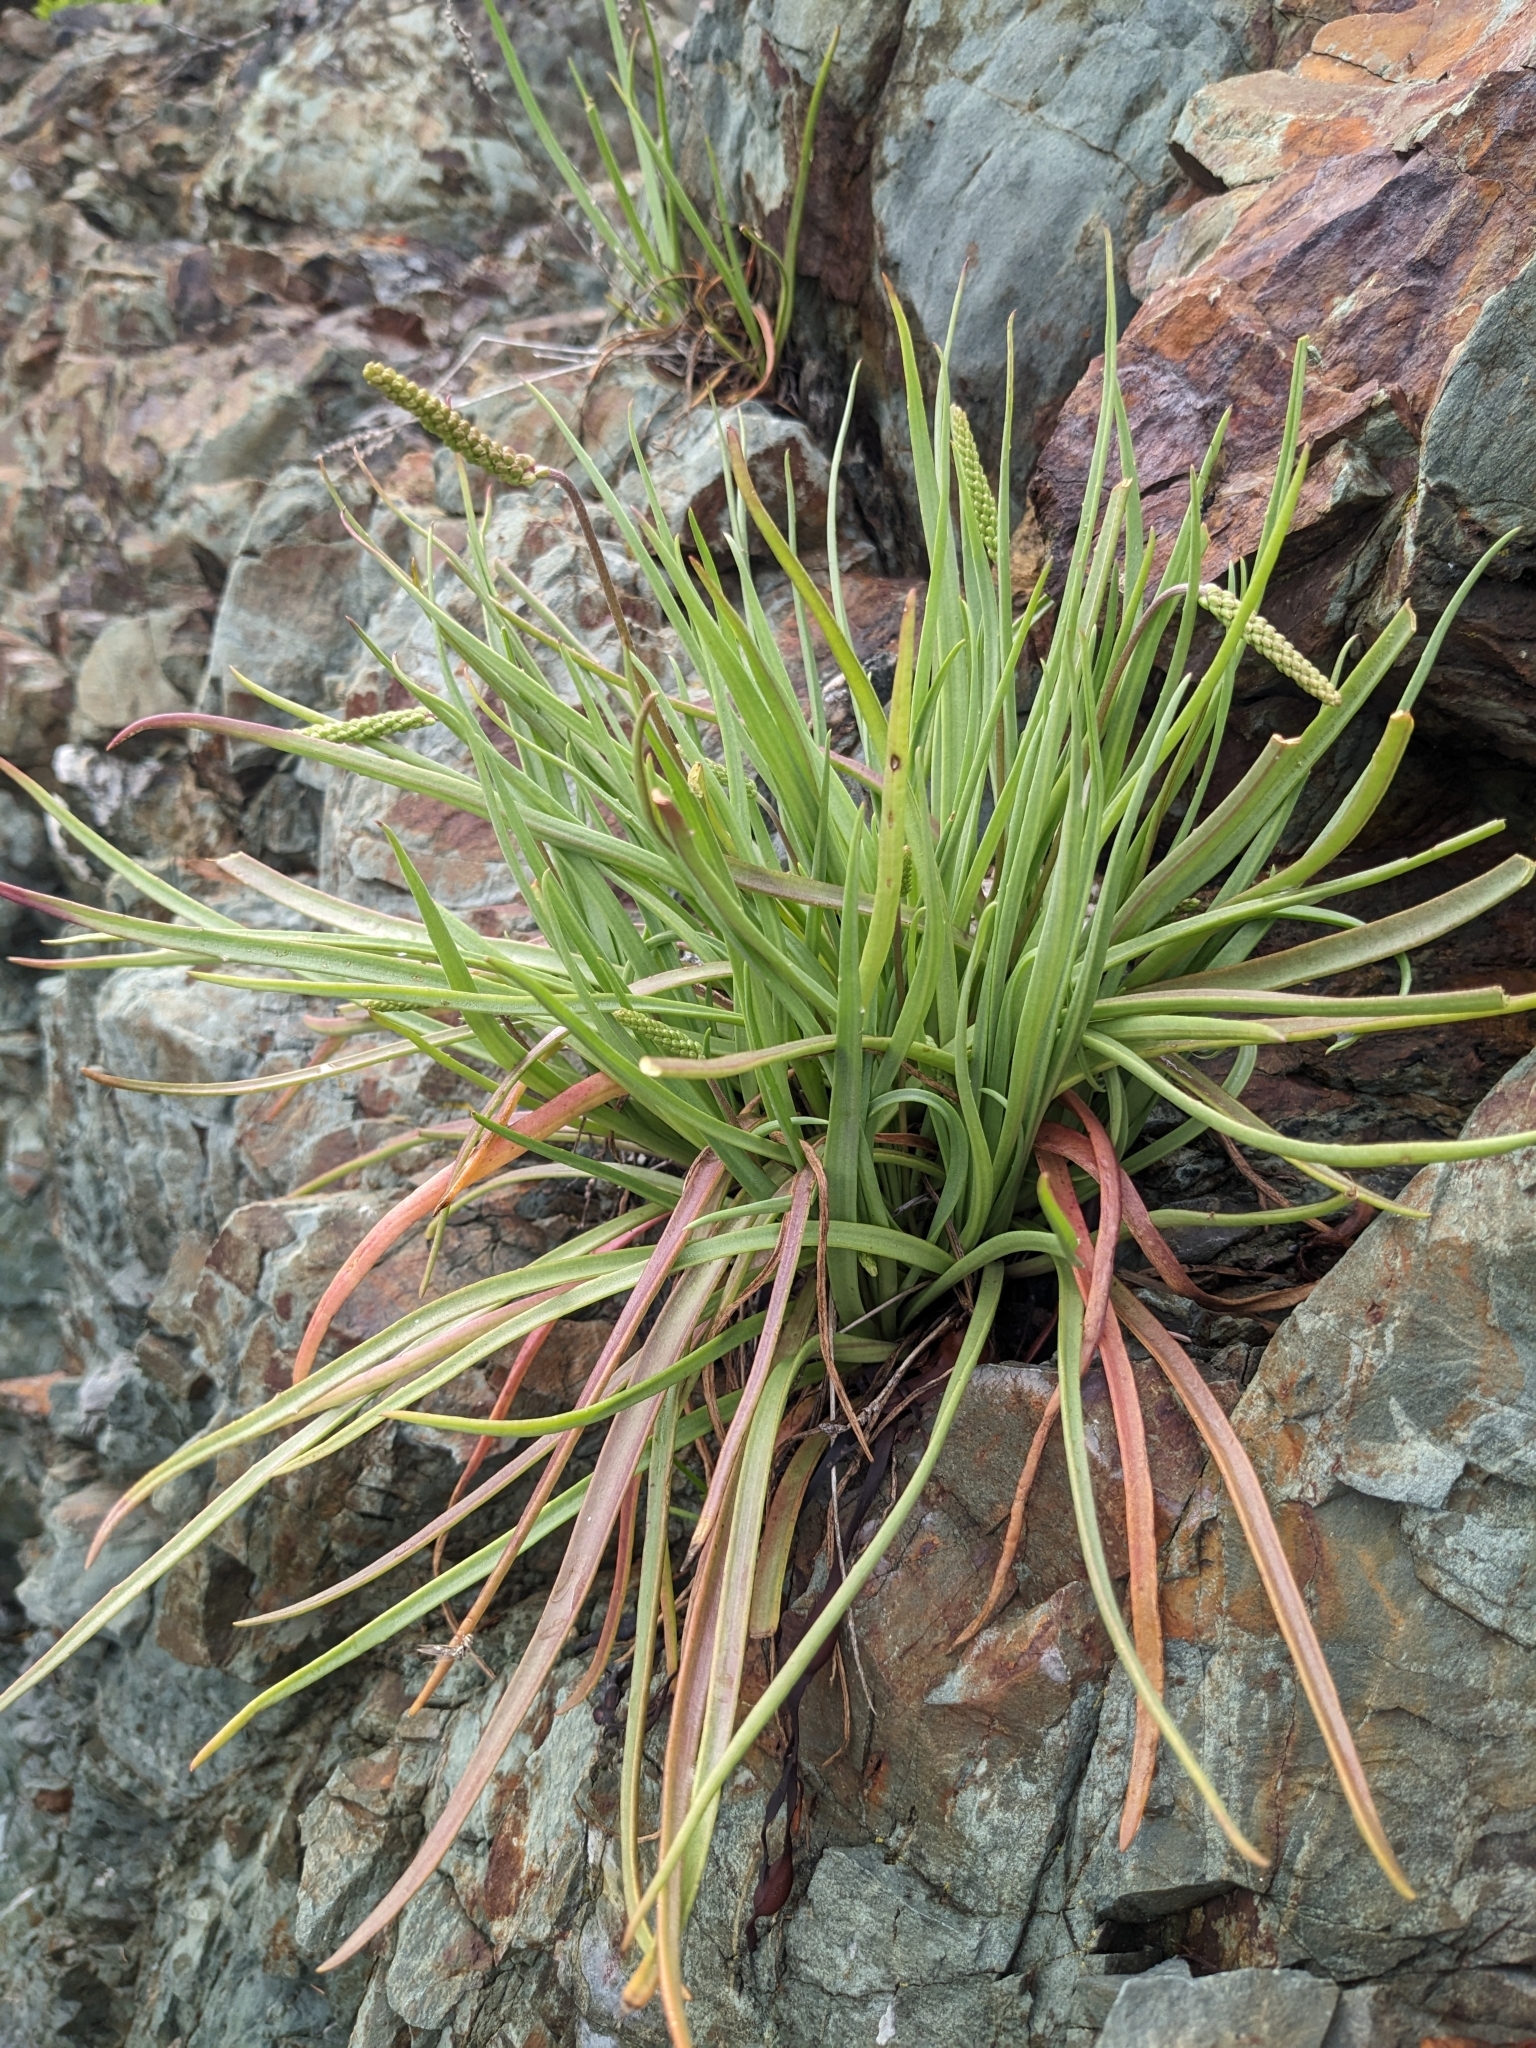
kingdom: Plantae
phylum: Tracheophyta
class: Magnoliopsida
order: Lamiales
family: Plantaginaceae
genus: Plantago
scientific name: Plantago maritima
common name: Sea plantain
